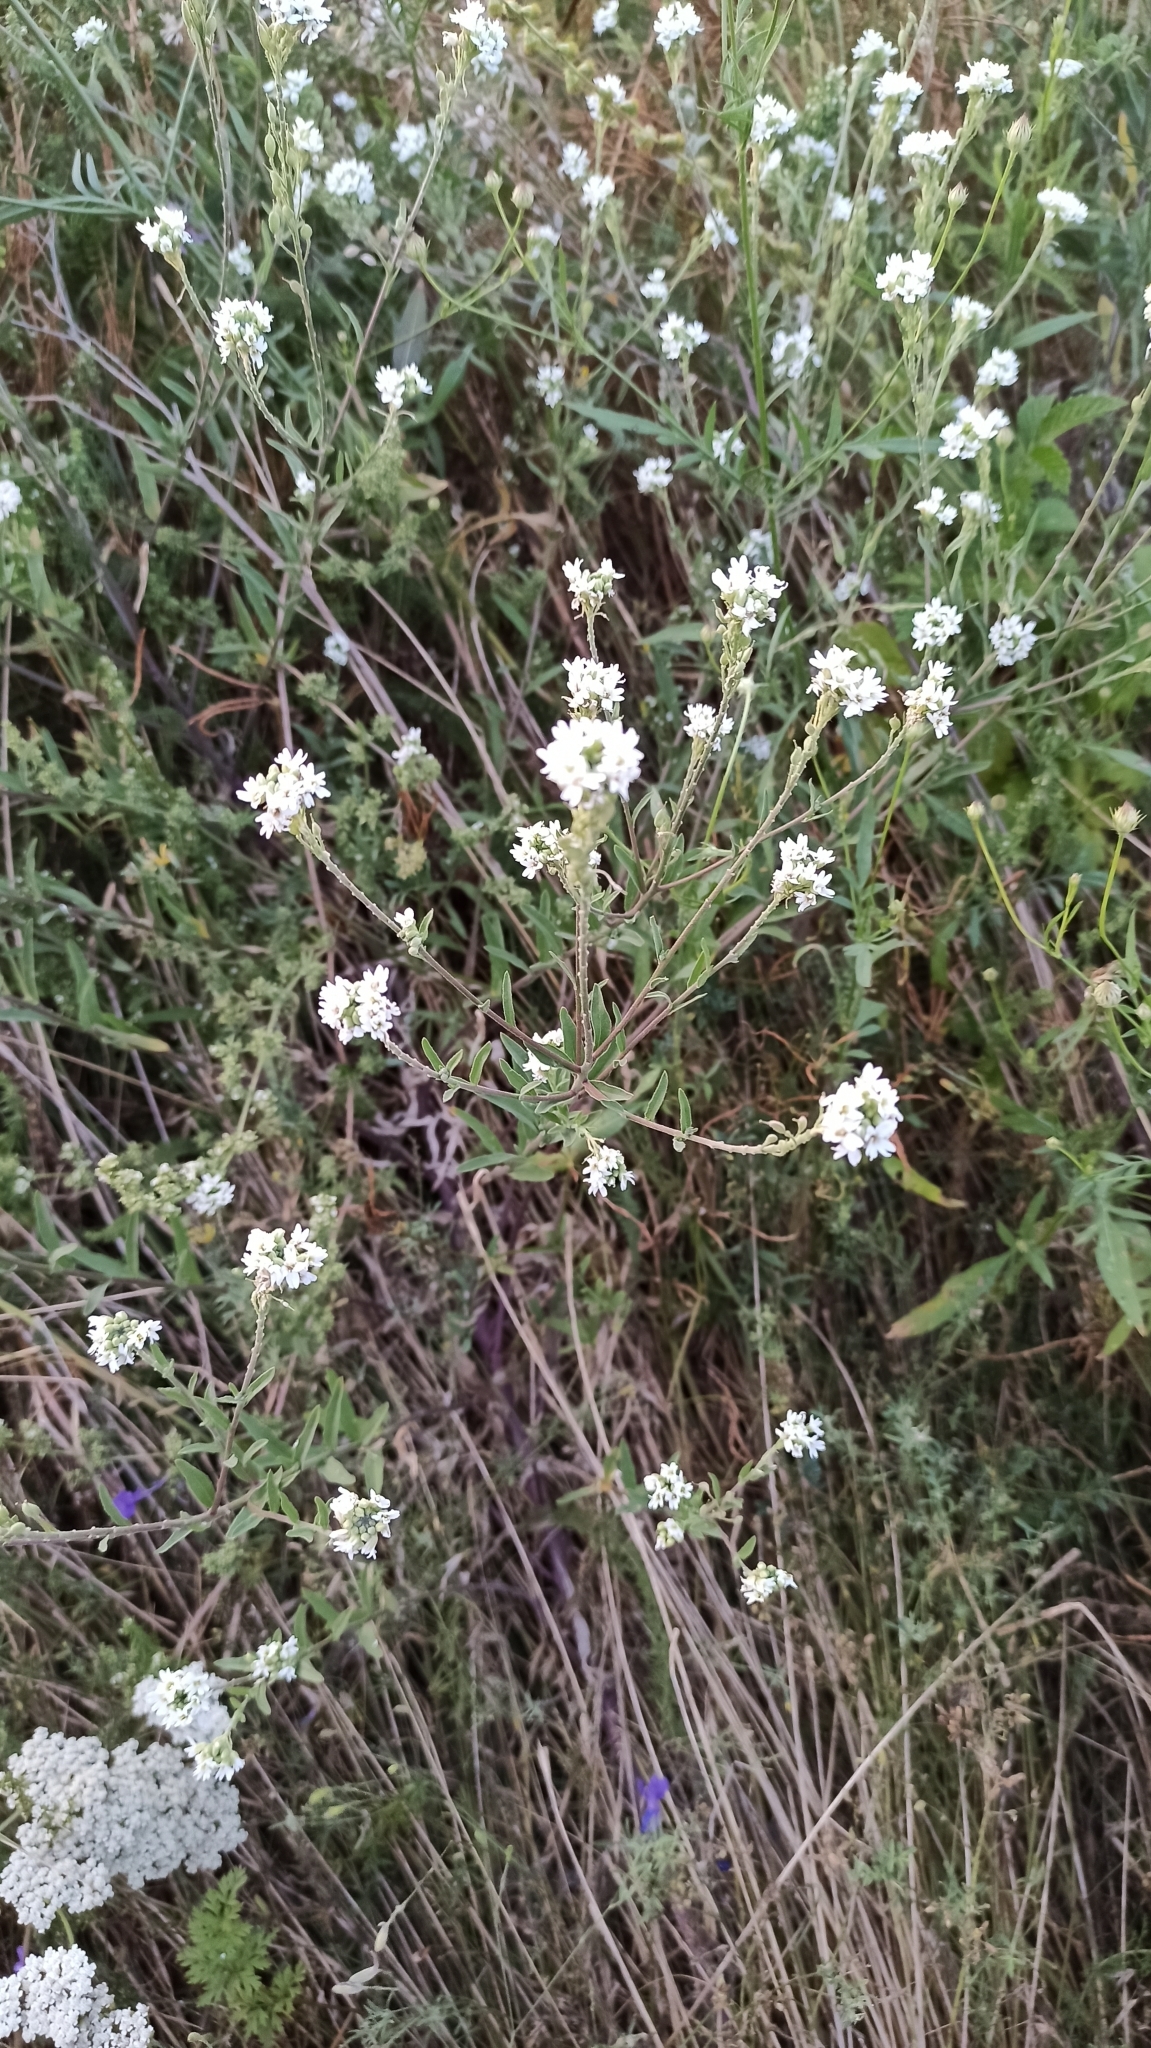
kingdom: Plantae
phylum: Tracheophyta
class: Magnoliopsida
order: Brassicales
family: Brassicaceae
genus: Berteroa
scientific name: Berteroa incana
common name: Hoary alison
